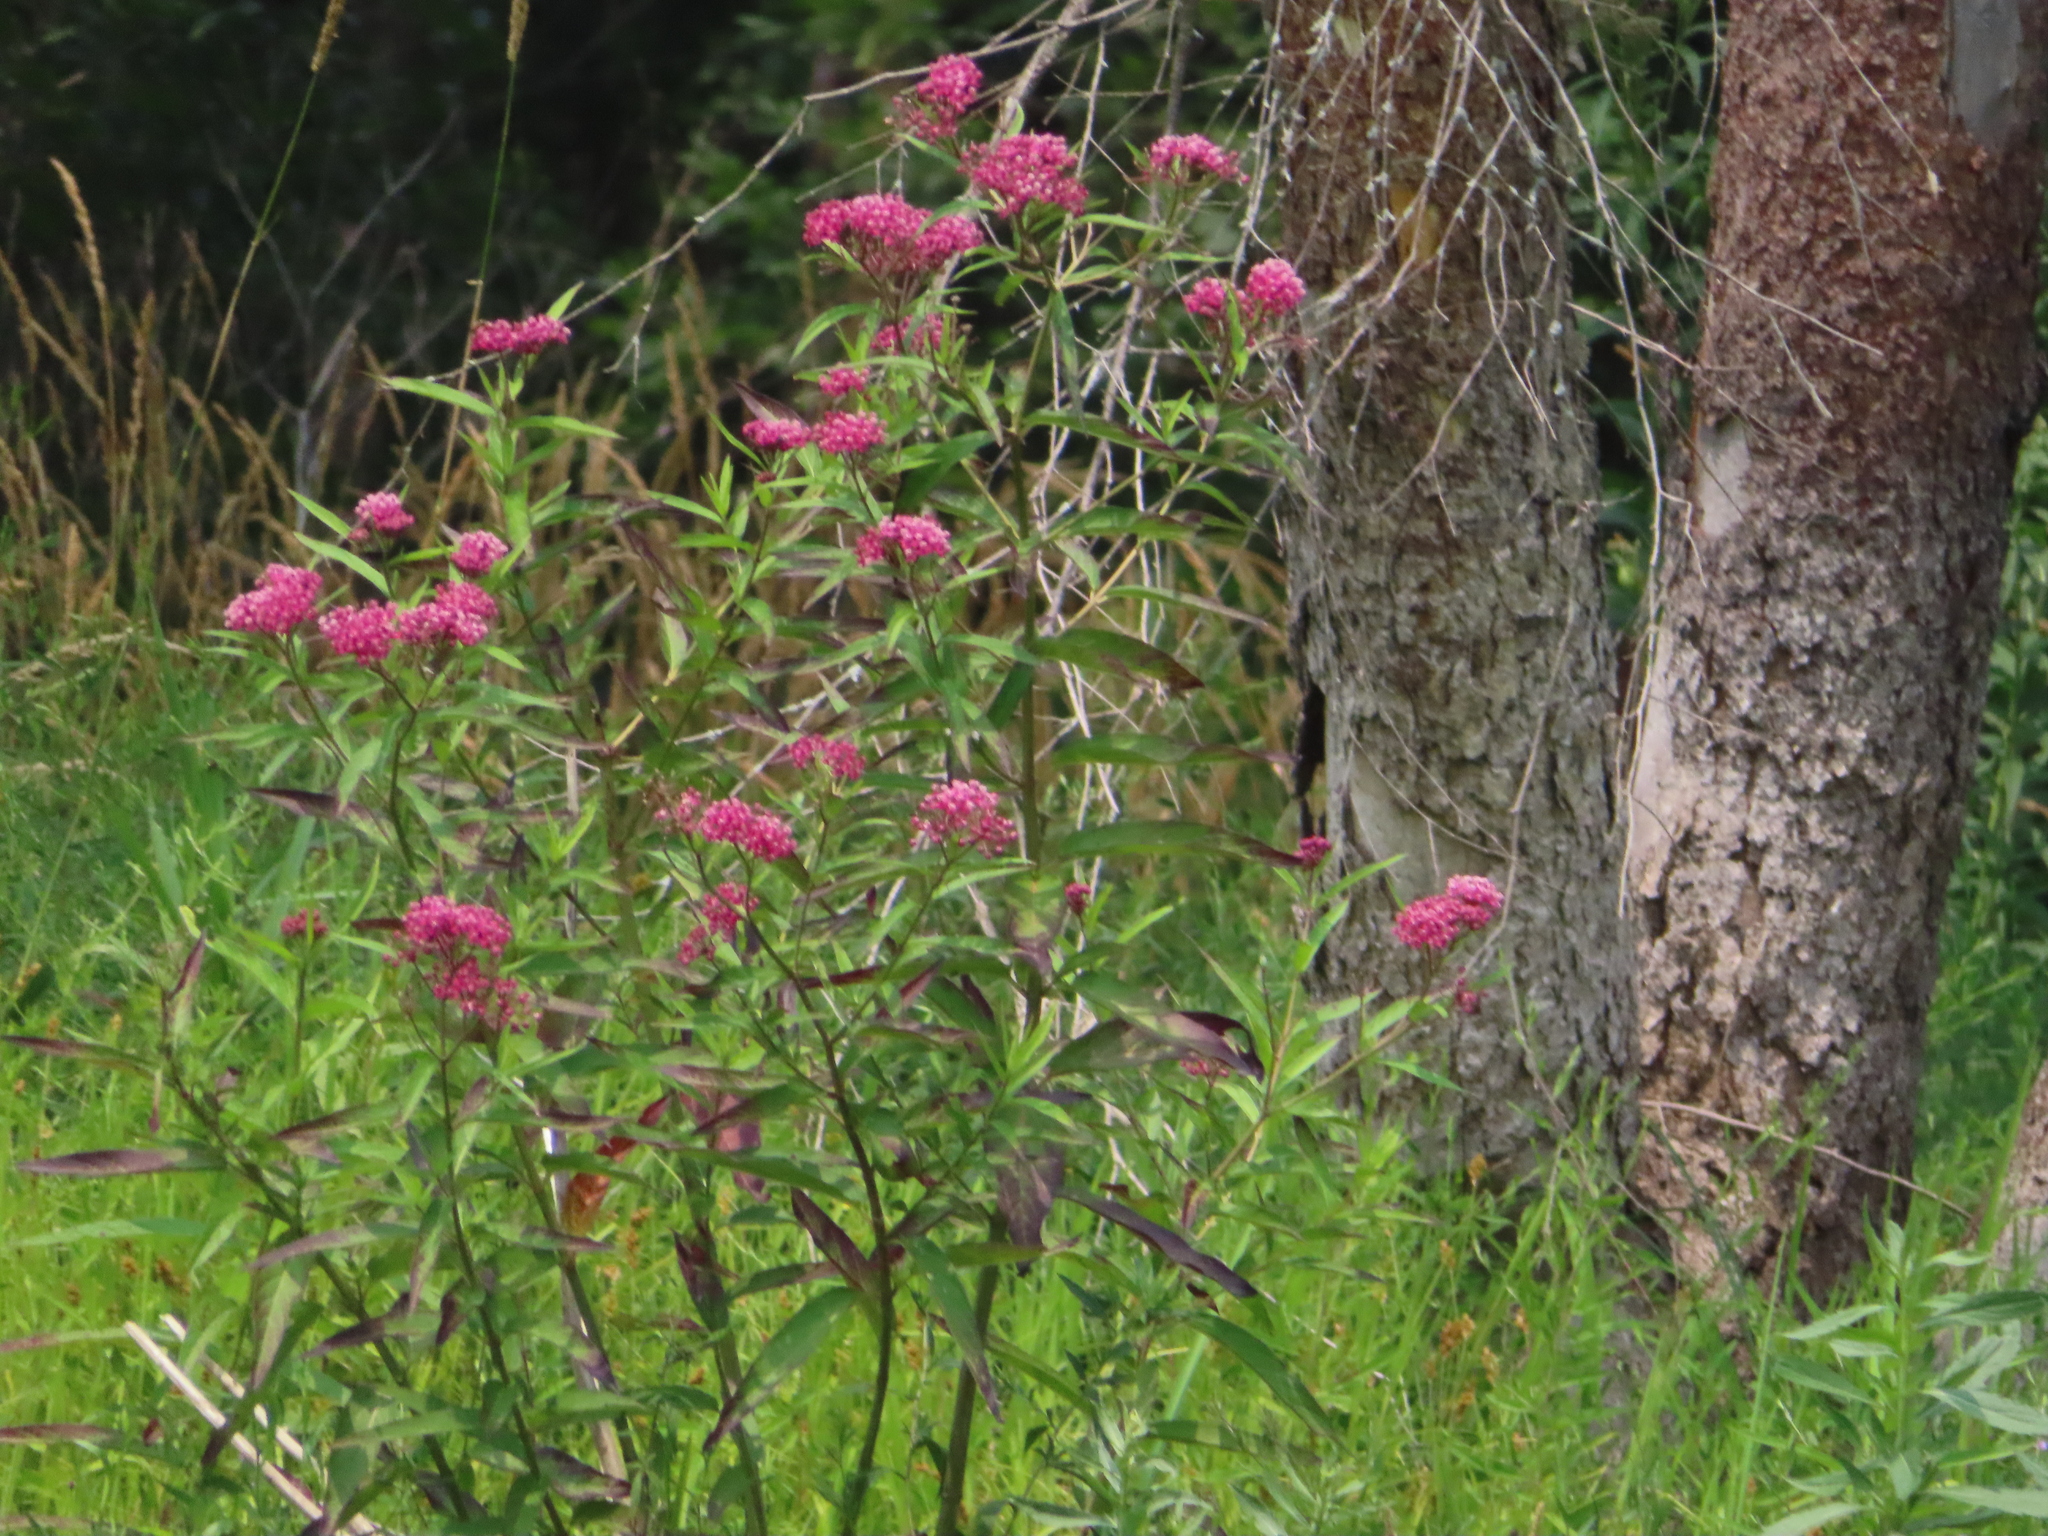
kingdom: Plantae
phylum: Tracheophyta
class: Magnoliopsida
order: Gentianales
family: Apocynaceae
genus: Asclepias
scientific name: Asclepias incarnata
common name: Swamp milkweed
